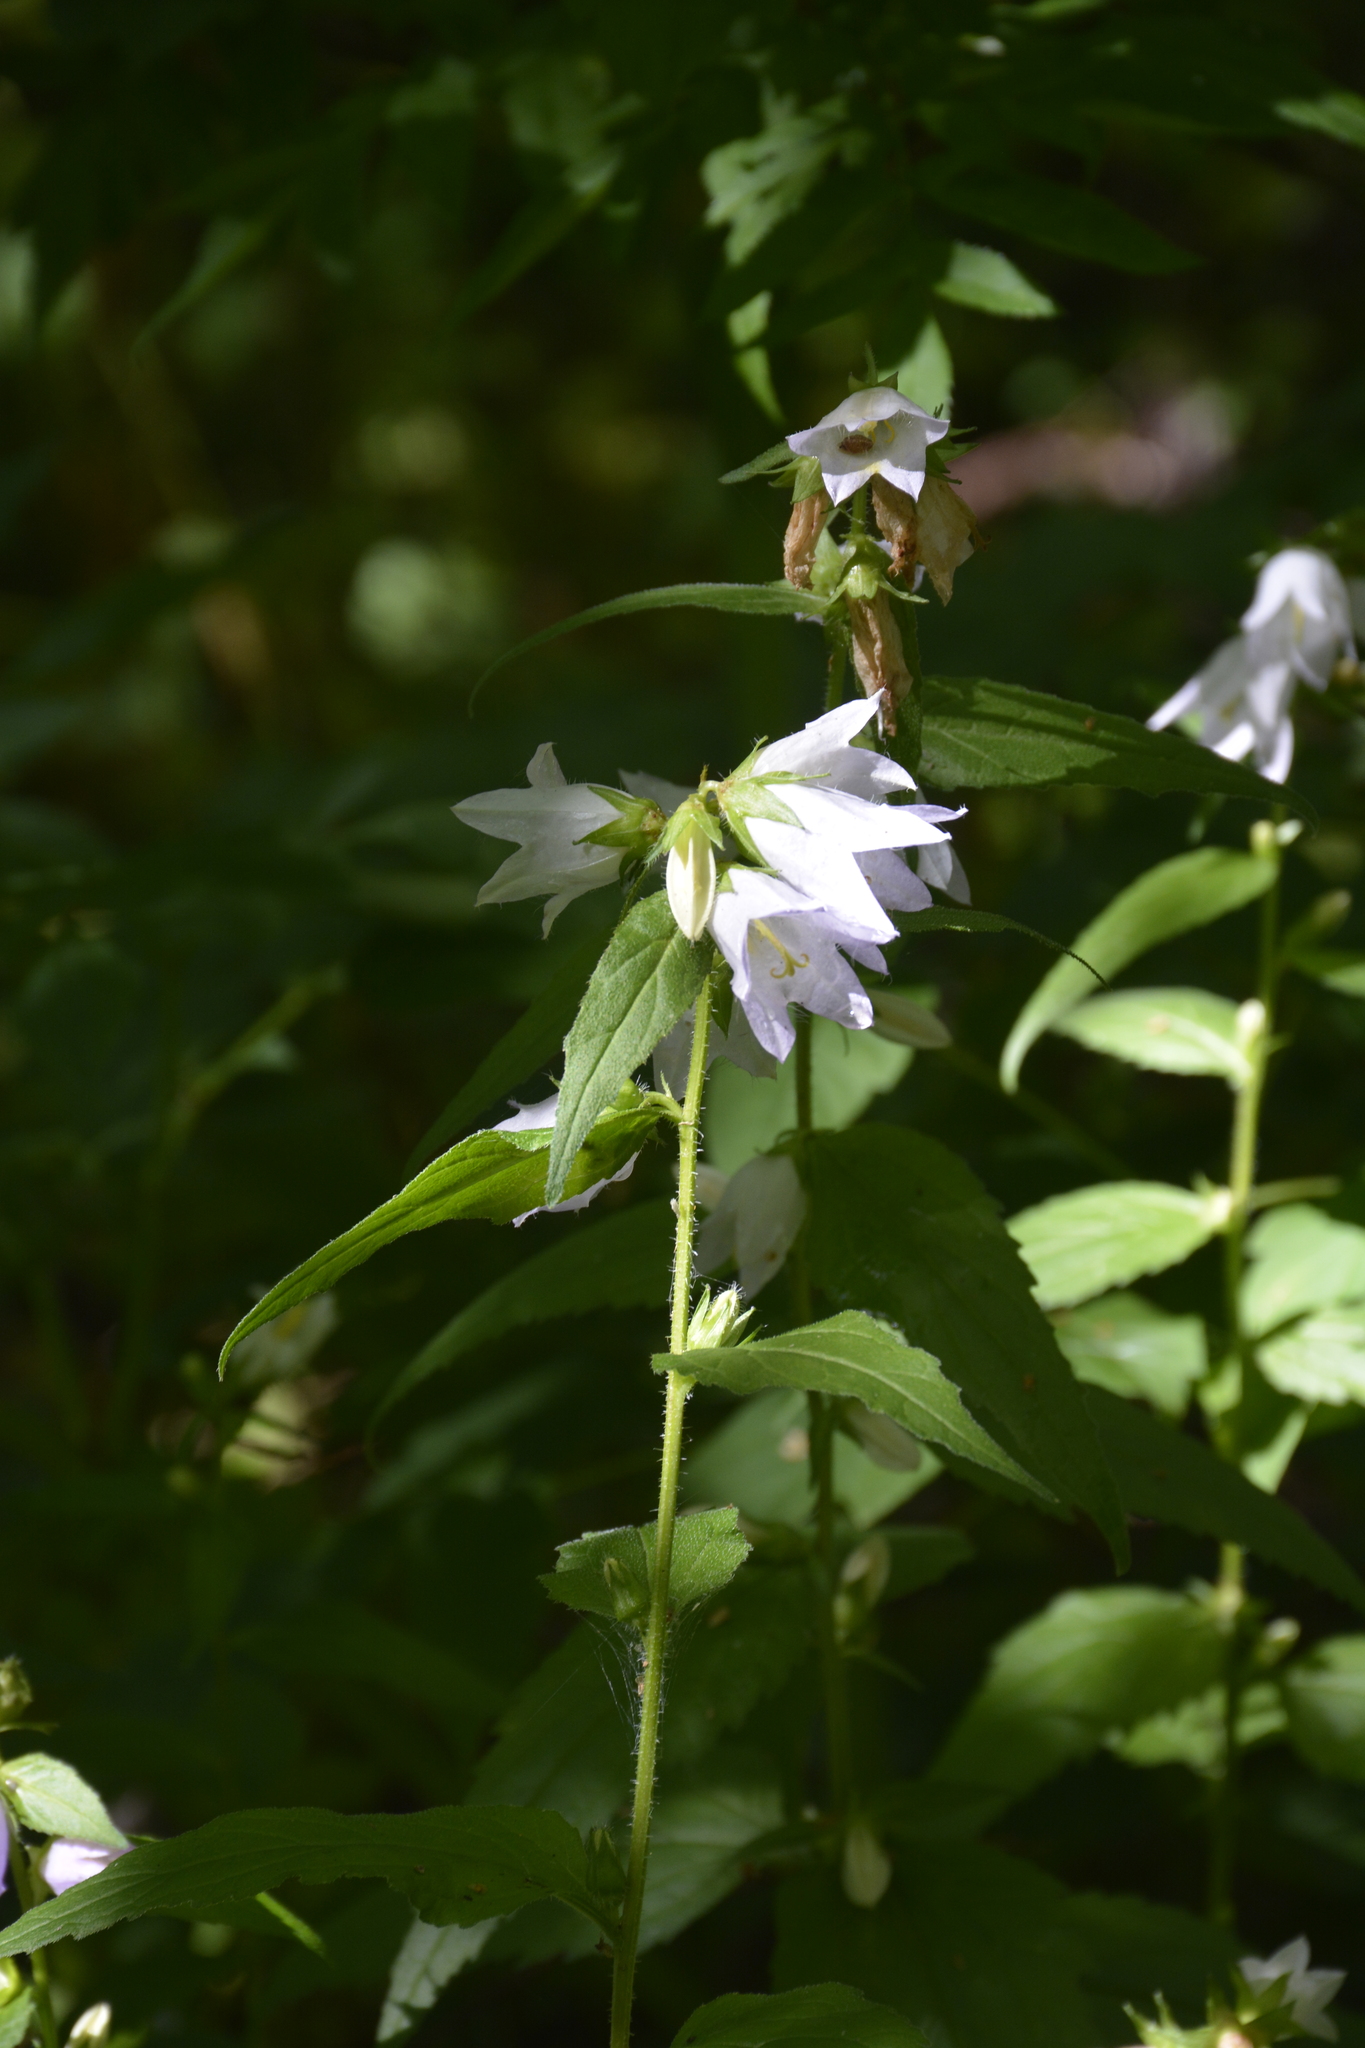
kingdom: Plantae
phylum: Tracheophyta
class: Magnoliopsida
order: Asterales
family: Campanulaceae
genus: Campanula
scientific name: Campanula trachelium
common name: Nettle-leaved bellflower
